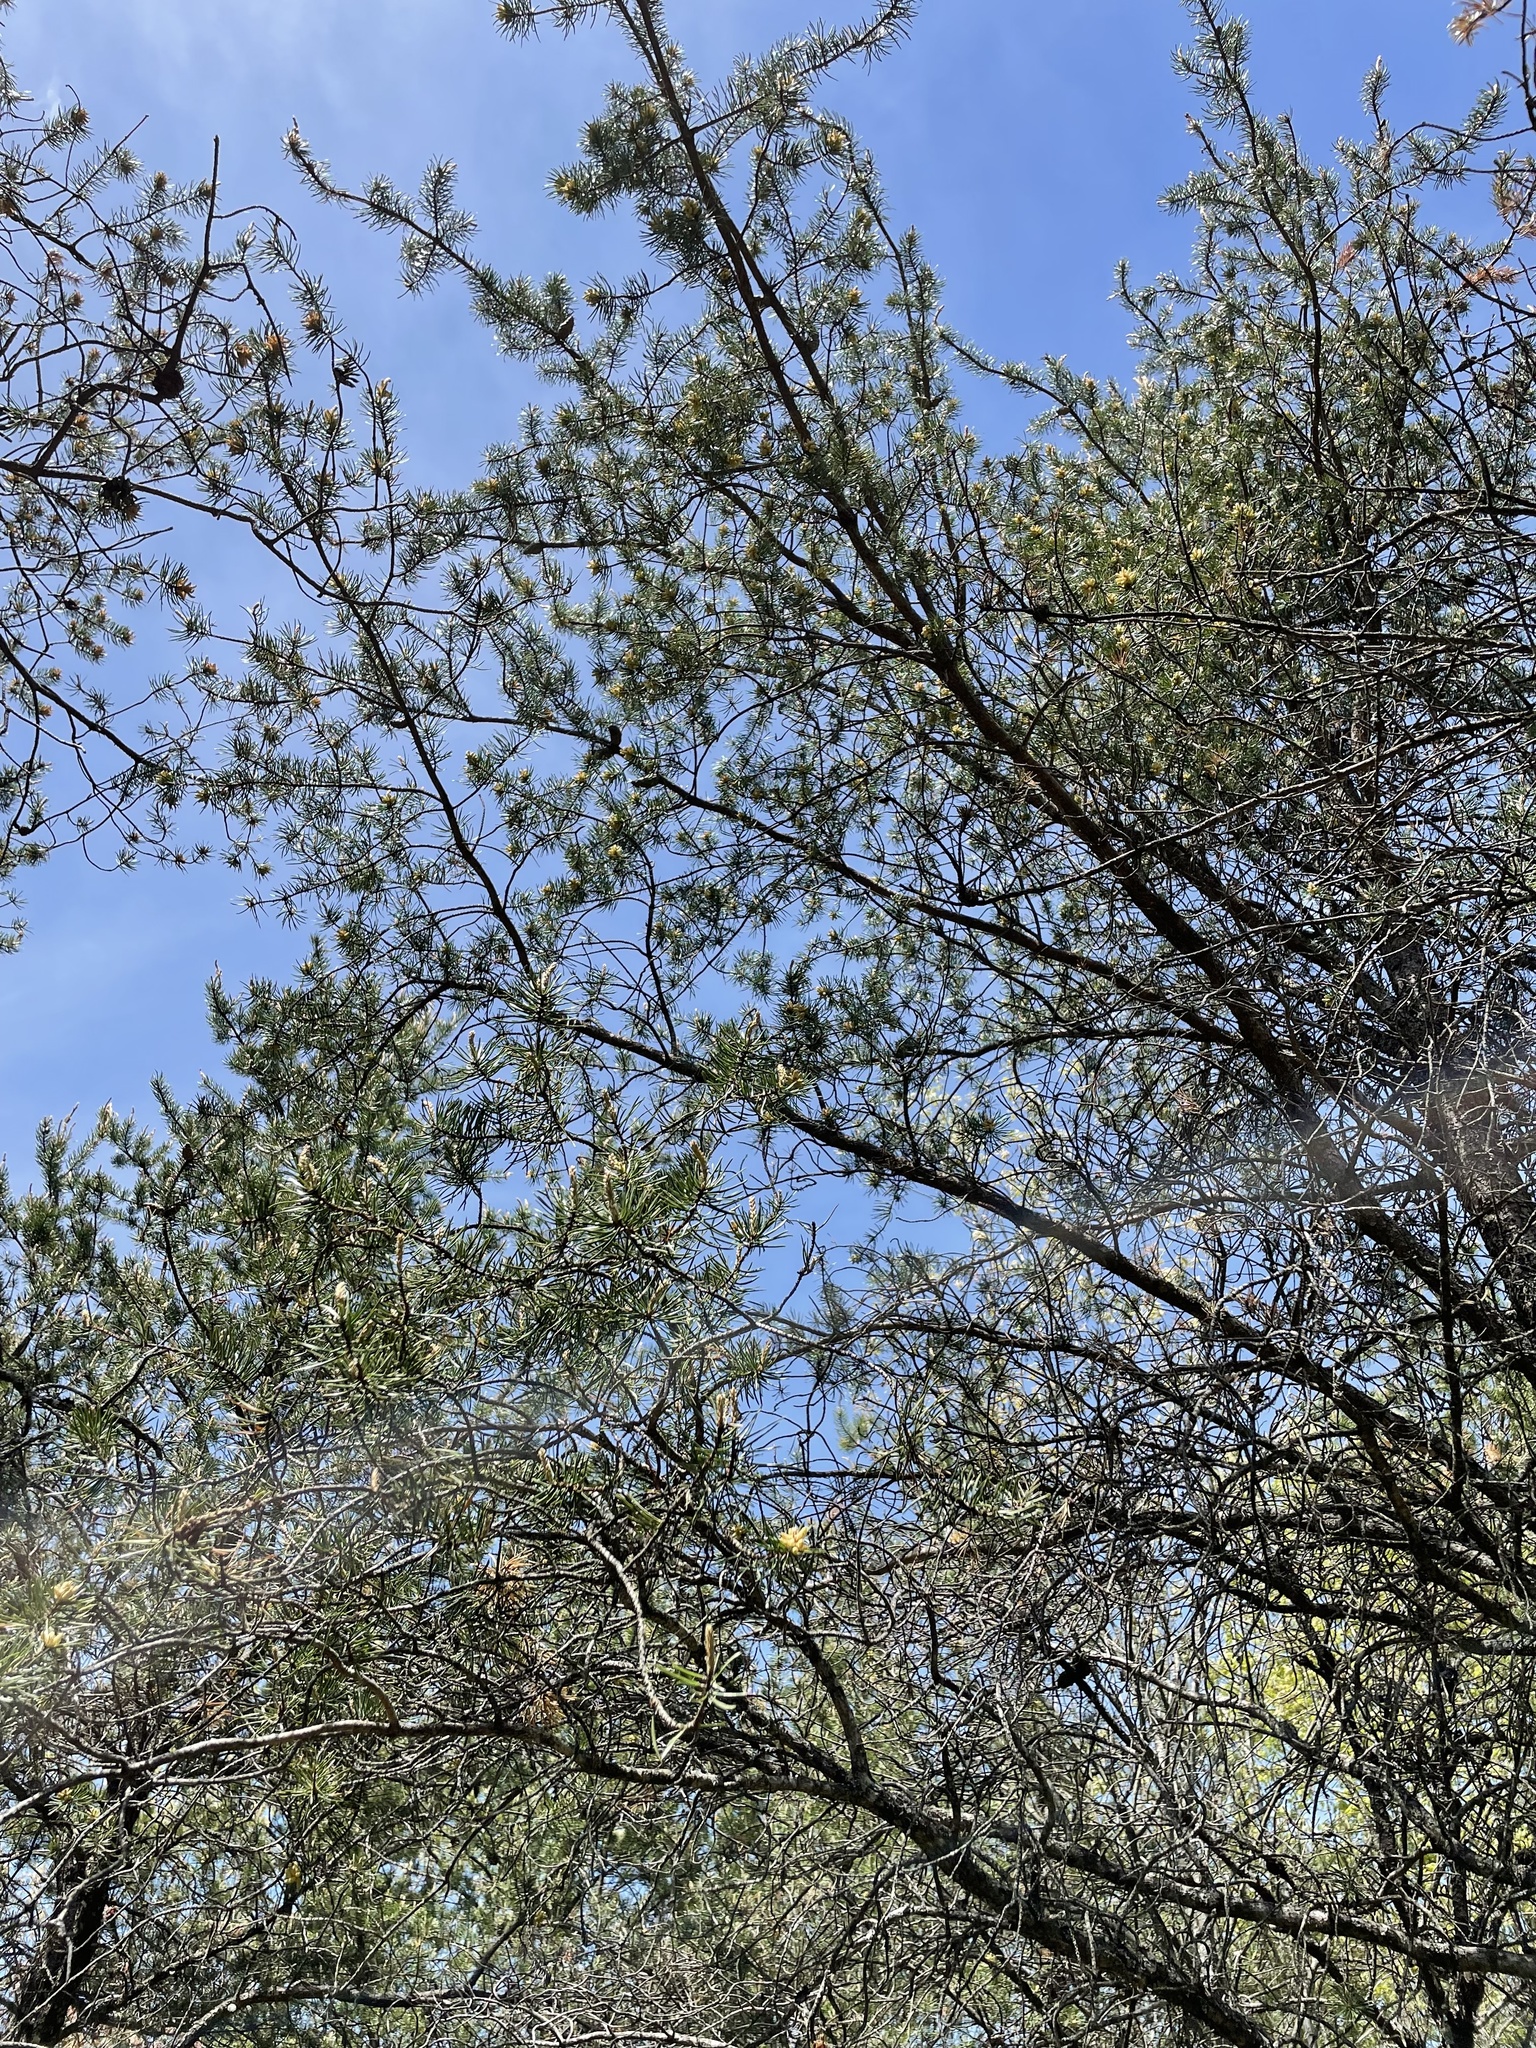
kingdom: Plantae
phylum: Tracheophyta
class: Pinopsida
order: Pinales
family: Pinaceae
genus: Pinus
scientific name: Pinus banksiana
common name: Jack pine
